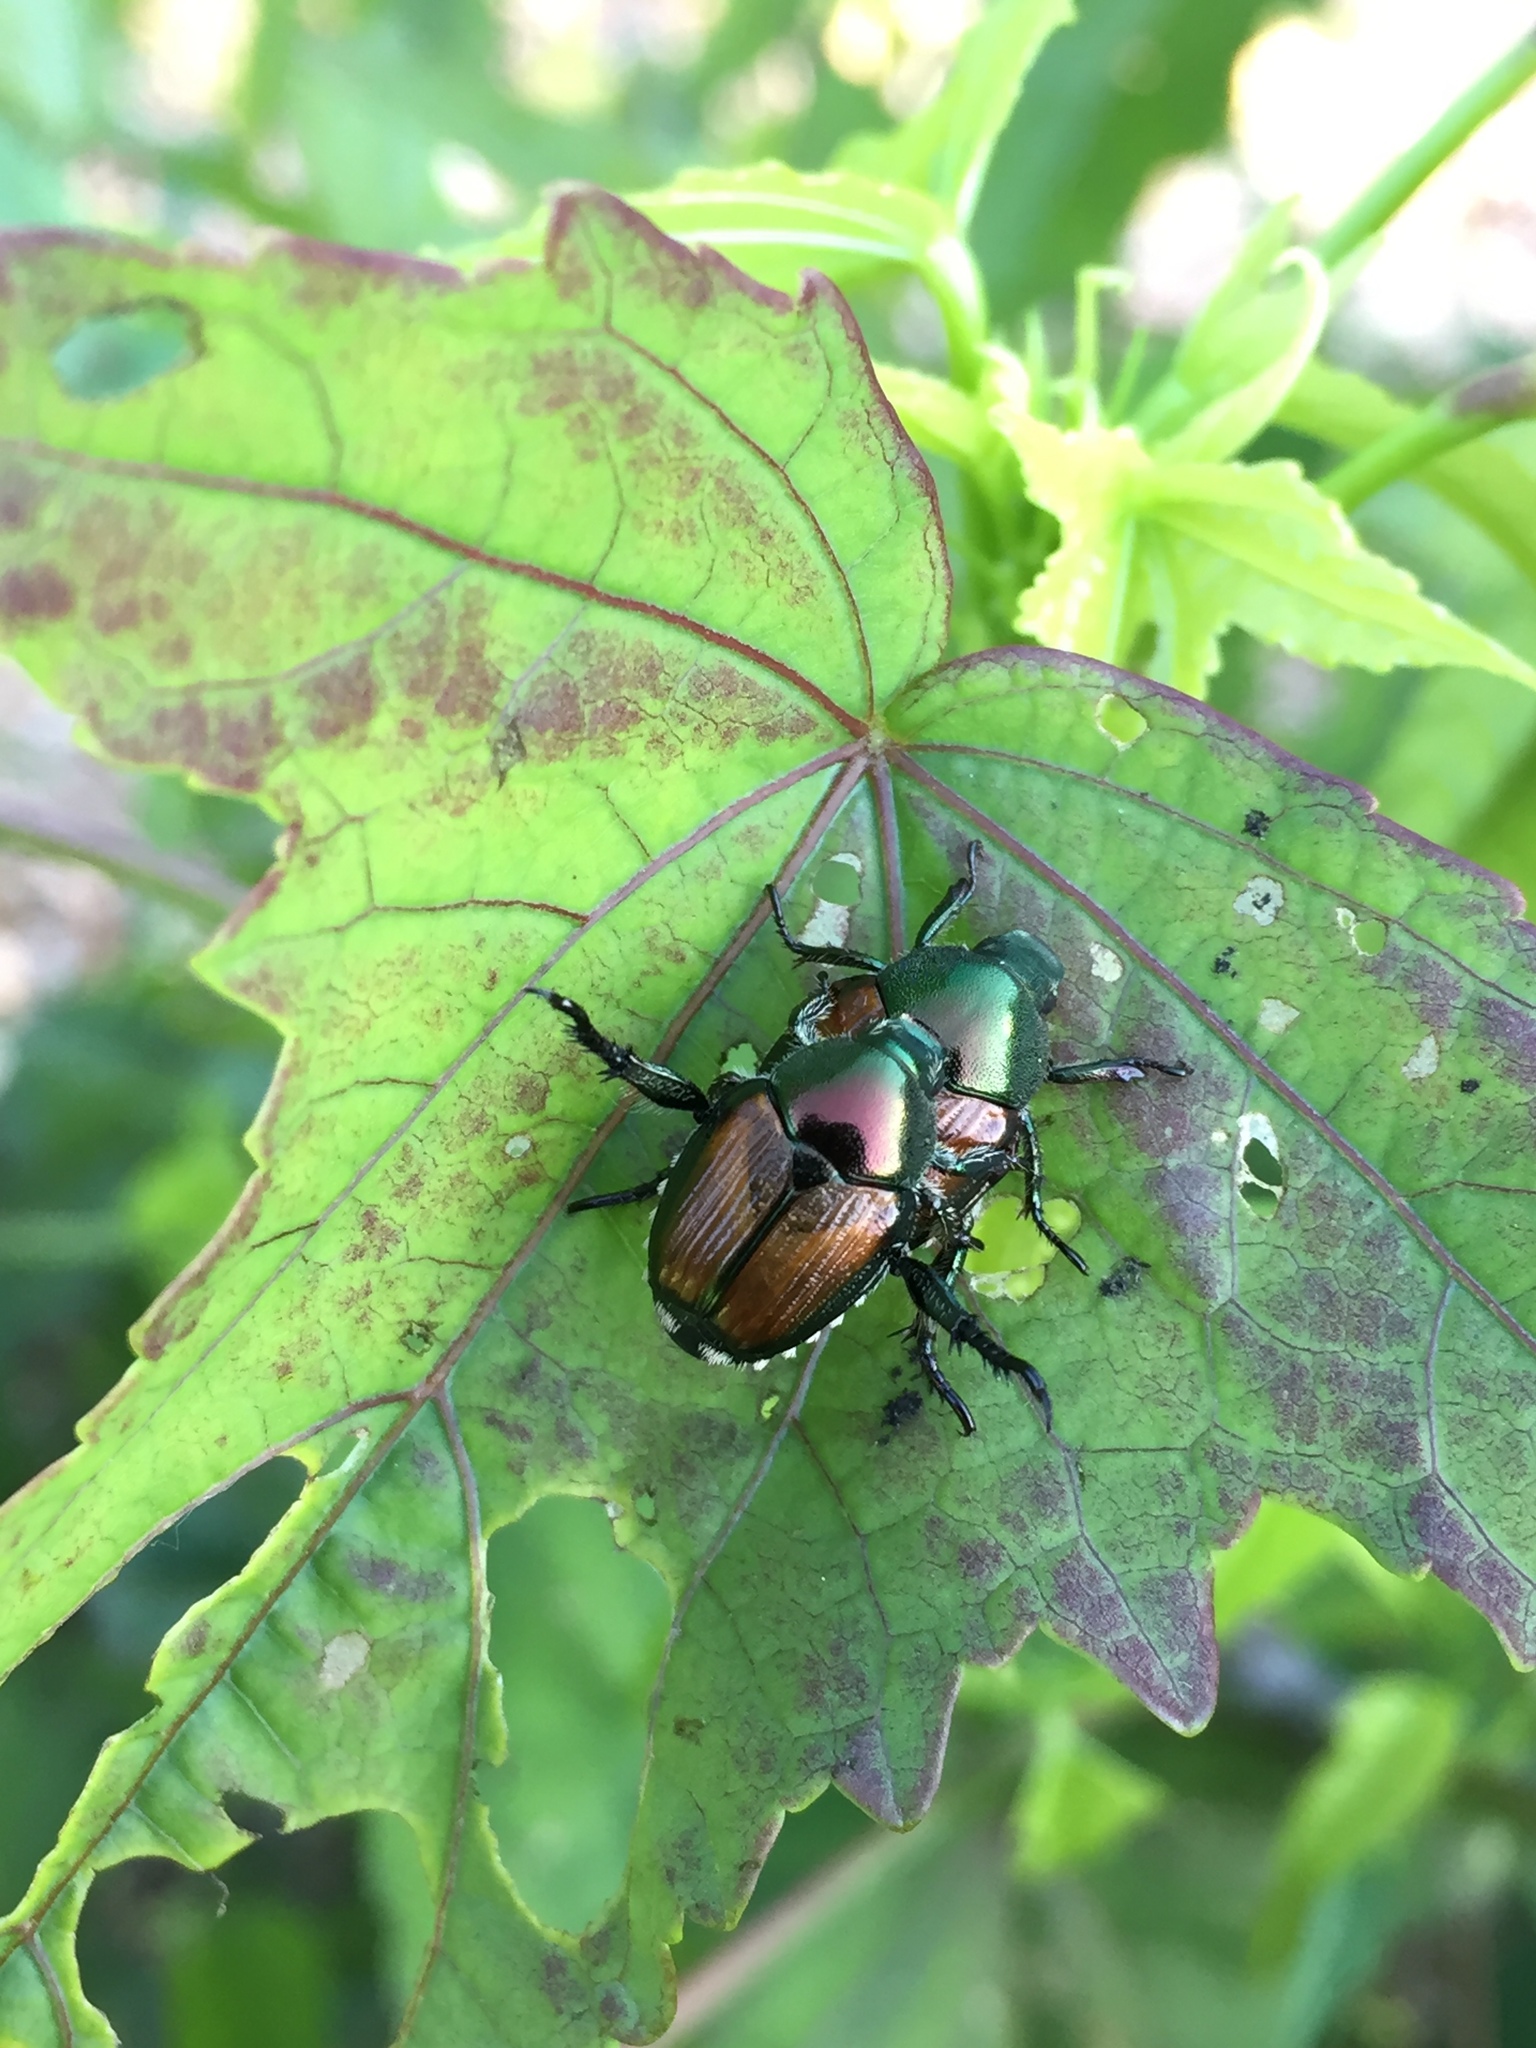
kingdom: Animalia
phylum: Arthropoda
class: Insecta
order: Coleoptera
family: Scarabaeidae
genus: Popillia
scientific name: Popillia japonica
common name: Japanese beetle
